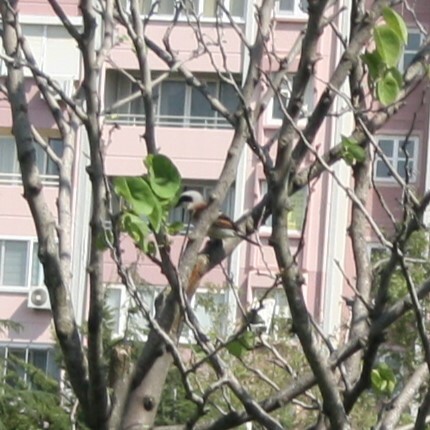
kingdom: Animalia
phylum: Chordata
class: Aves
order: Passeriformes
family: Laniidae
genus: Lanius
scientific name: Lanius collurio
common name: Red-backed shrike
